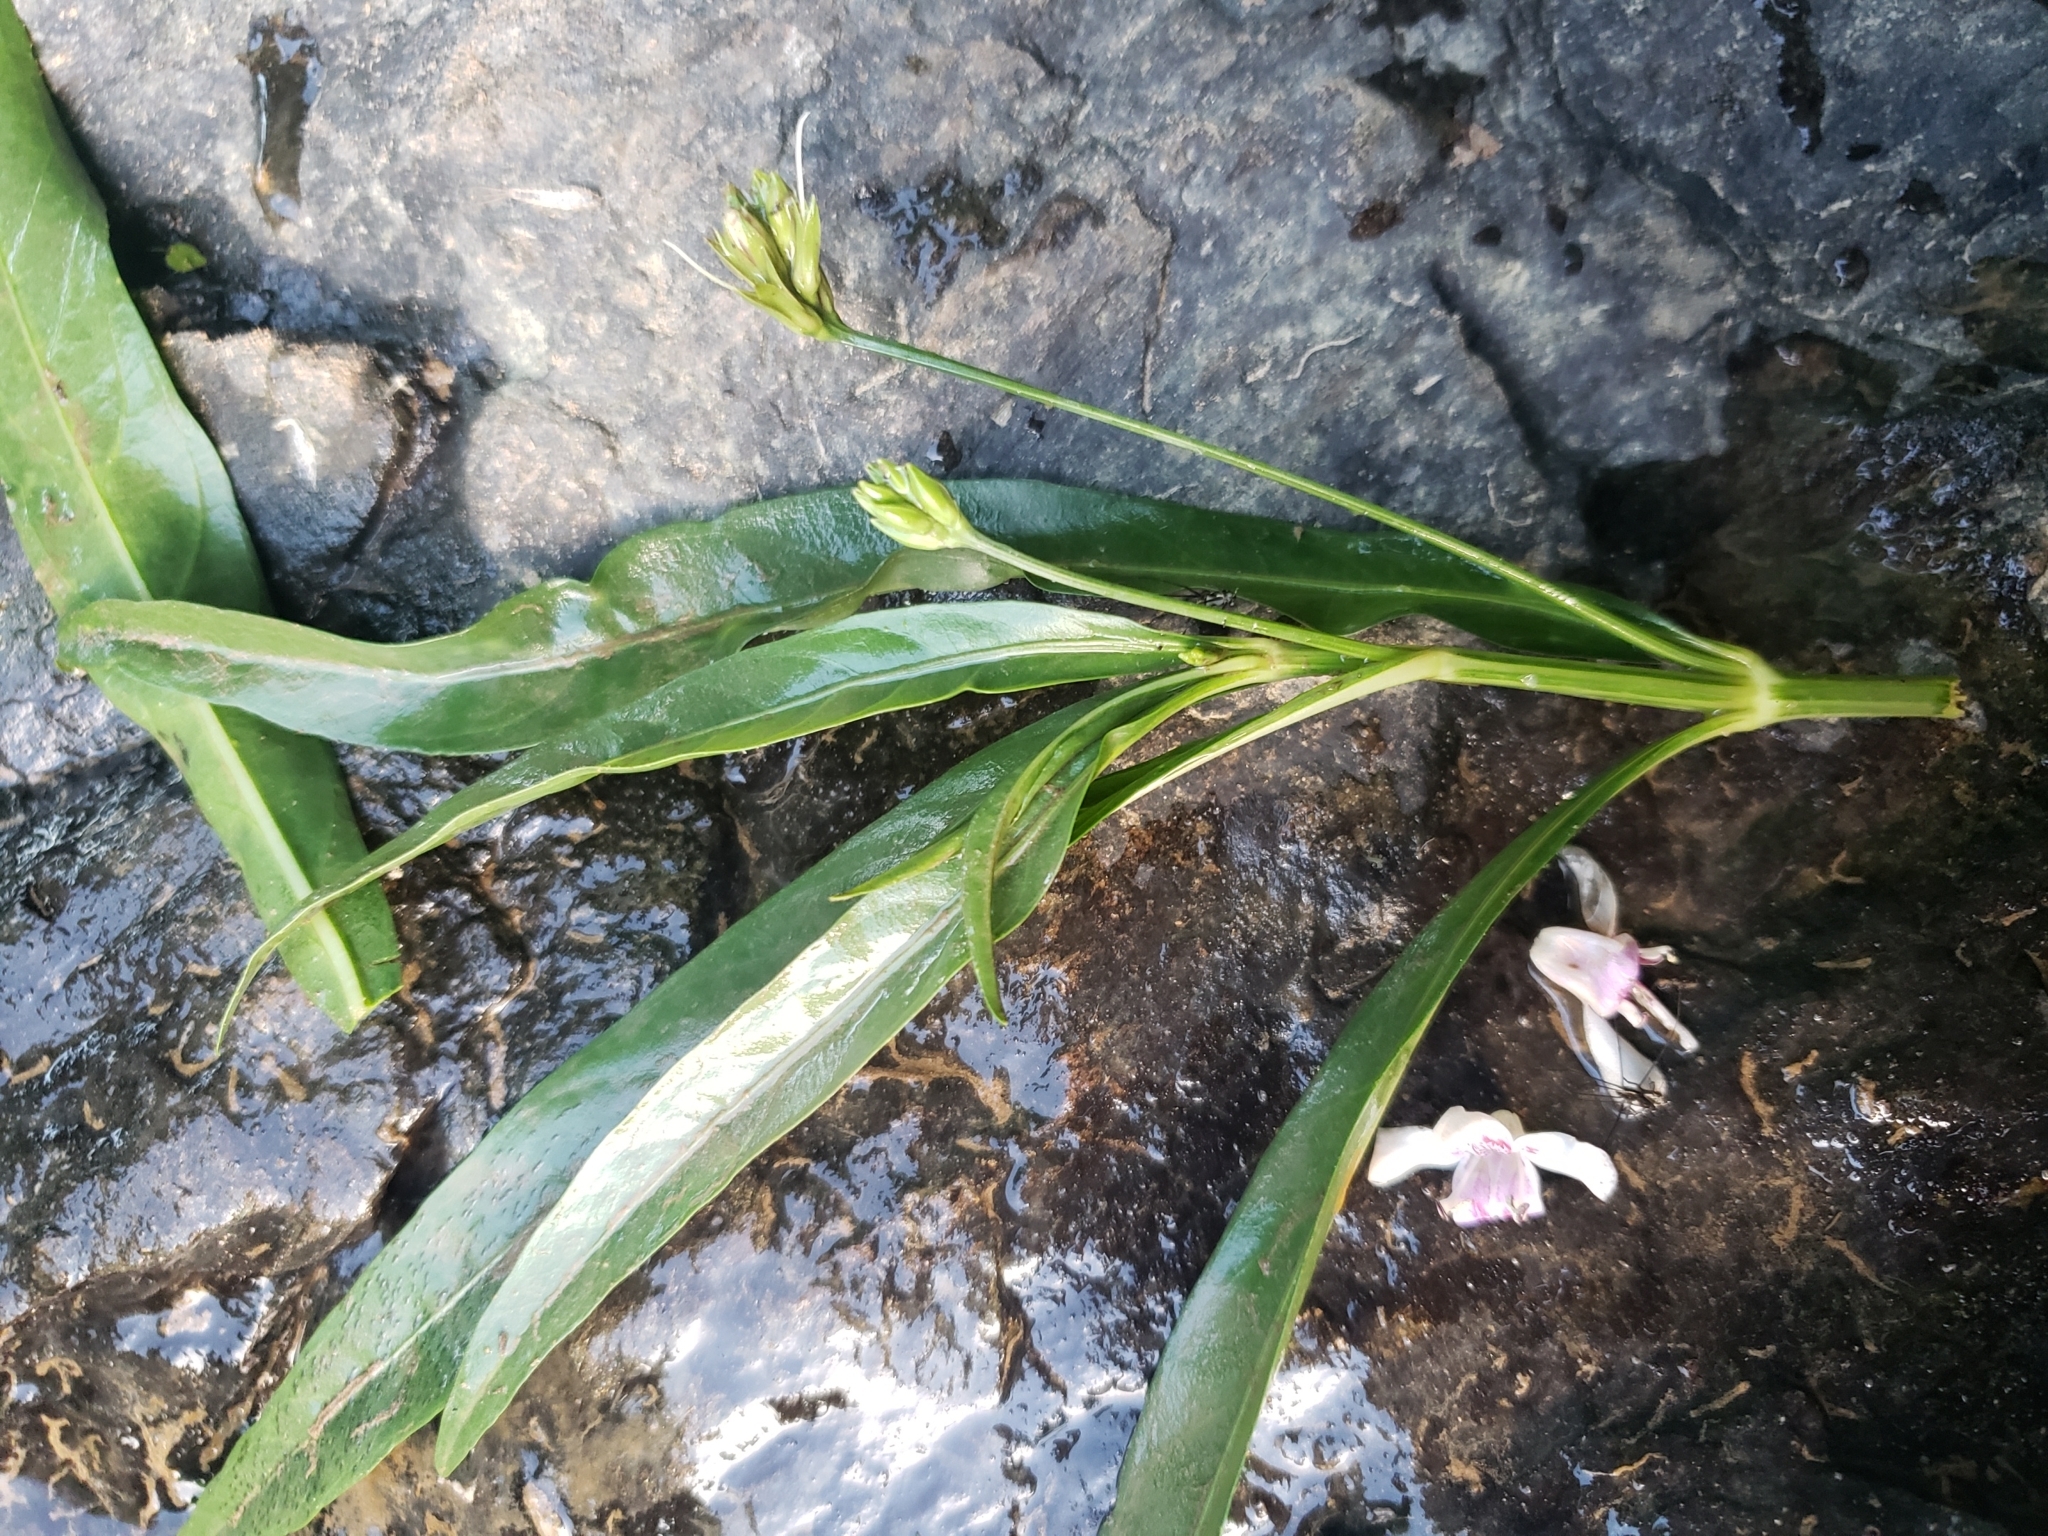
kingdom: Plantae
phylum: Tracheophyta
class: Magnoliopsida
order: Lamiales
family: Acanthaceae
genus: Dianthera
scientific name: Dianthera americana
